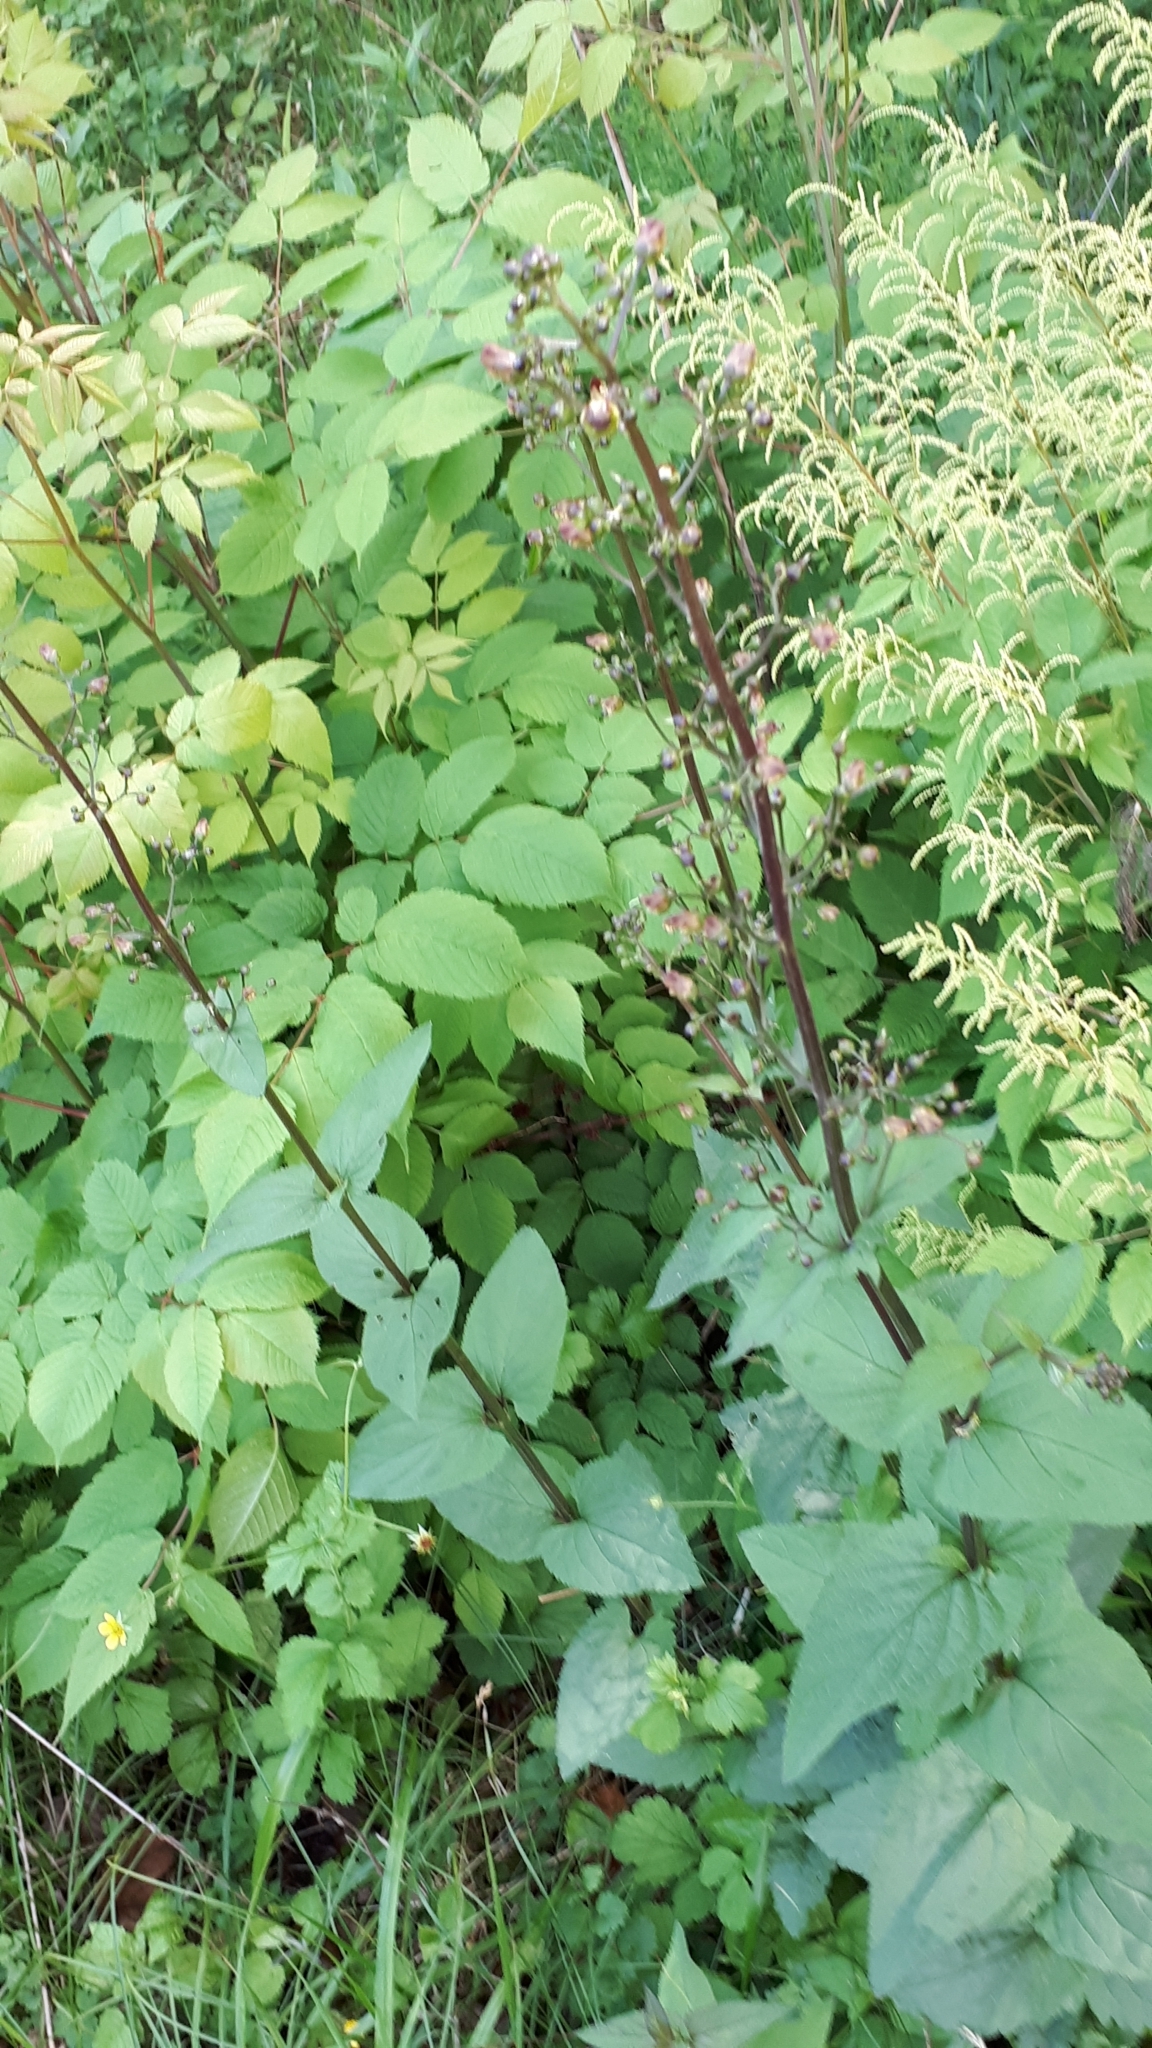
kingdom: Plantae
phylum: Tracheophyta
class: Magnoliopsida
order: Lamiales
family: Scrophulariaceae
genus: Scrophularia
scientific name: Scrophularia nodosa
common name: Common figwort
